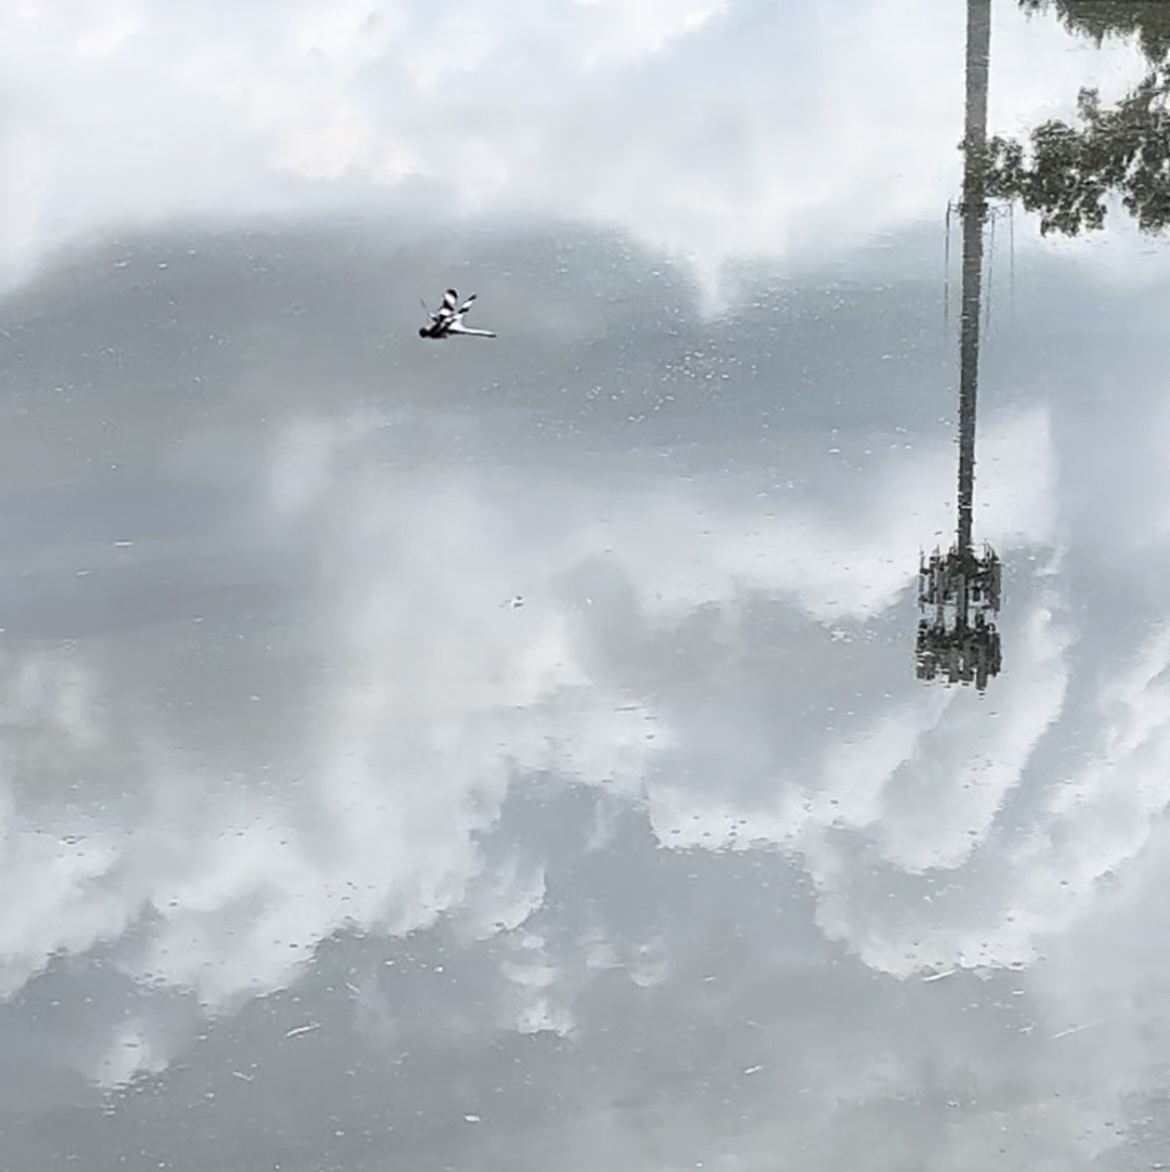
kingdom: Animalia
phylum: Arthropoda
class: Insecta
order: Odonata
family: Libellulidae
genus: Libellula
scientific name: Libellula pulchella
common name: Twelve-spotted skimmer
